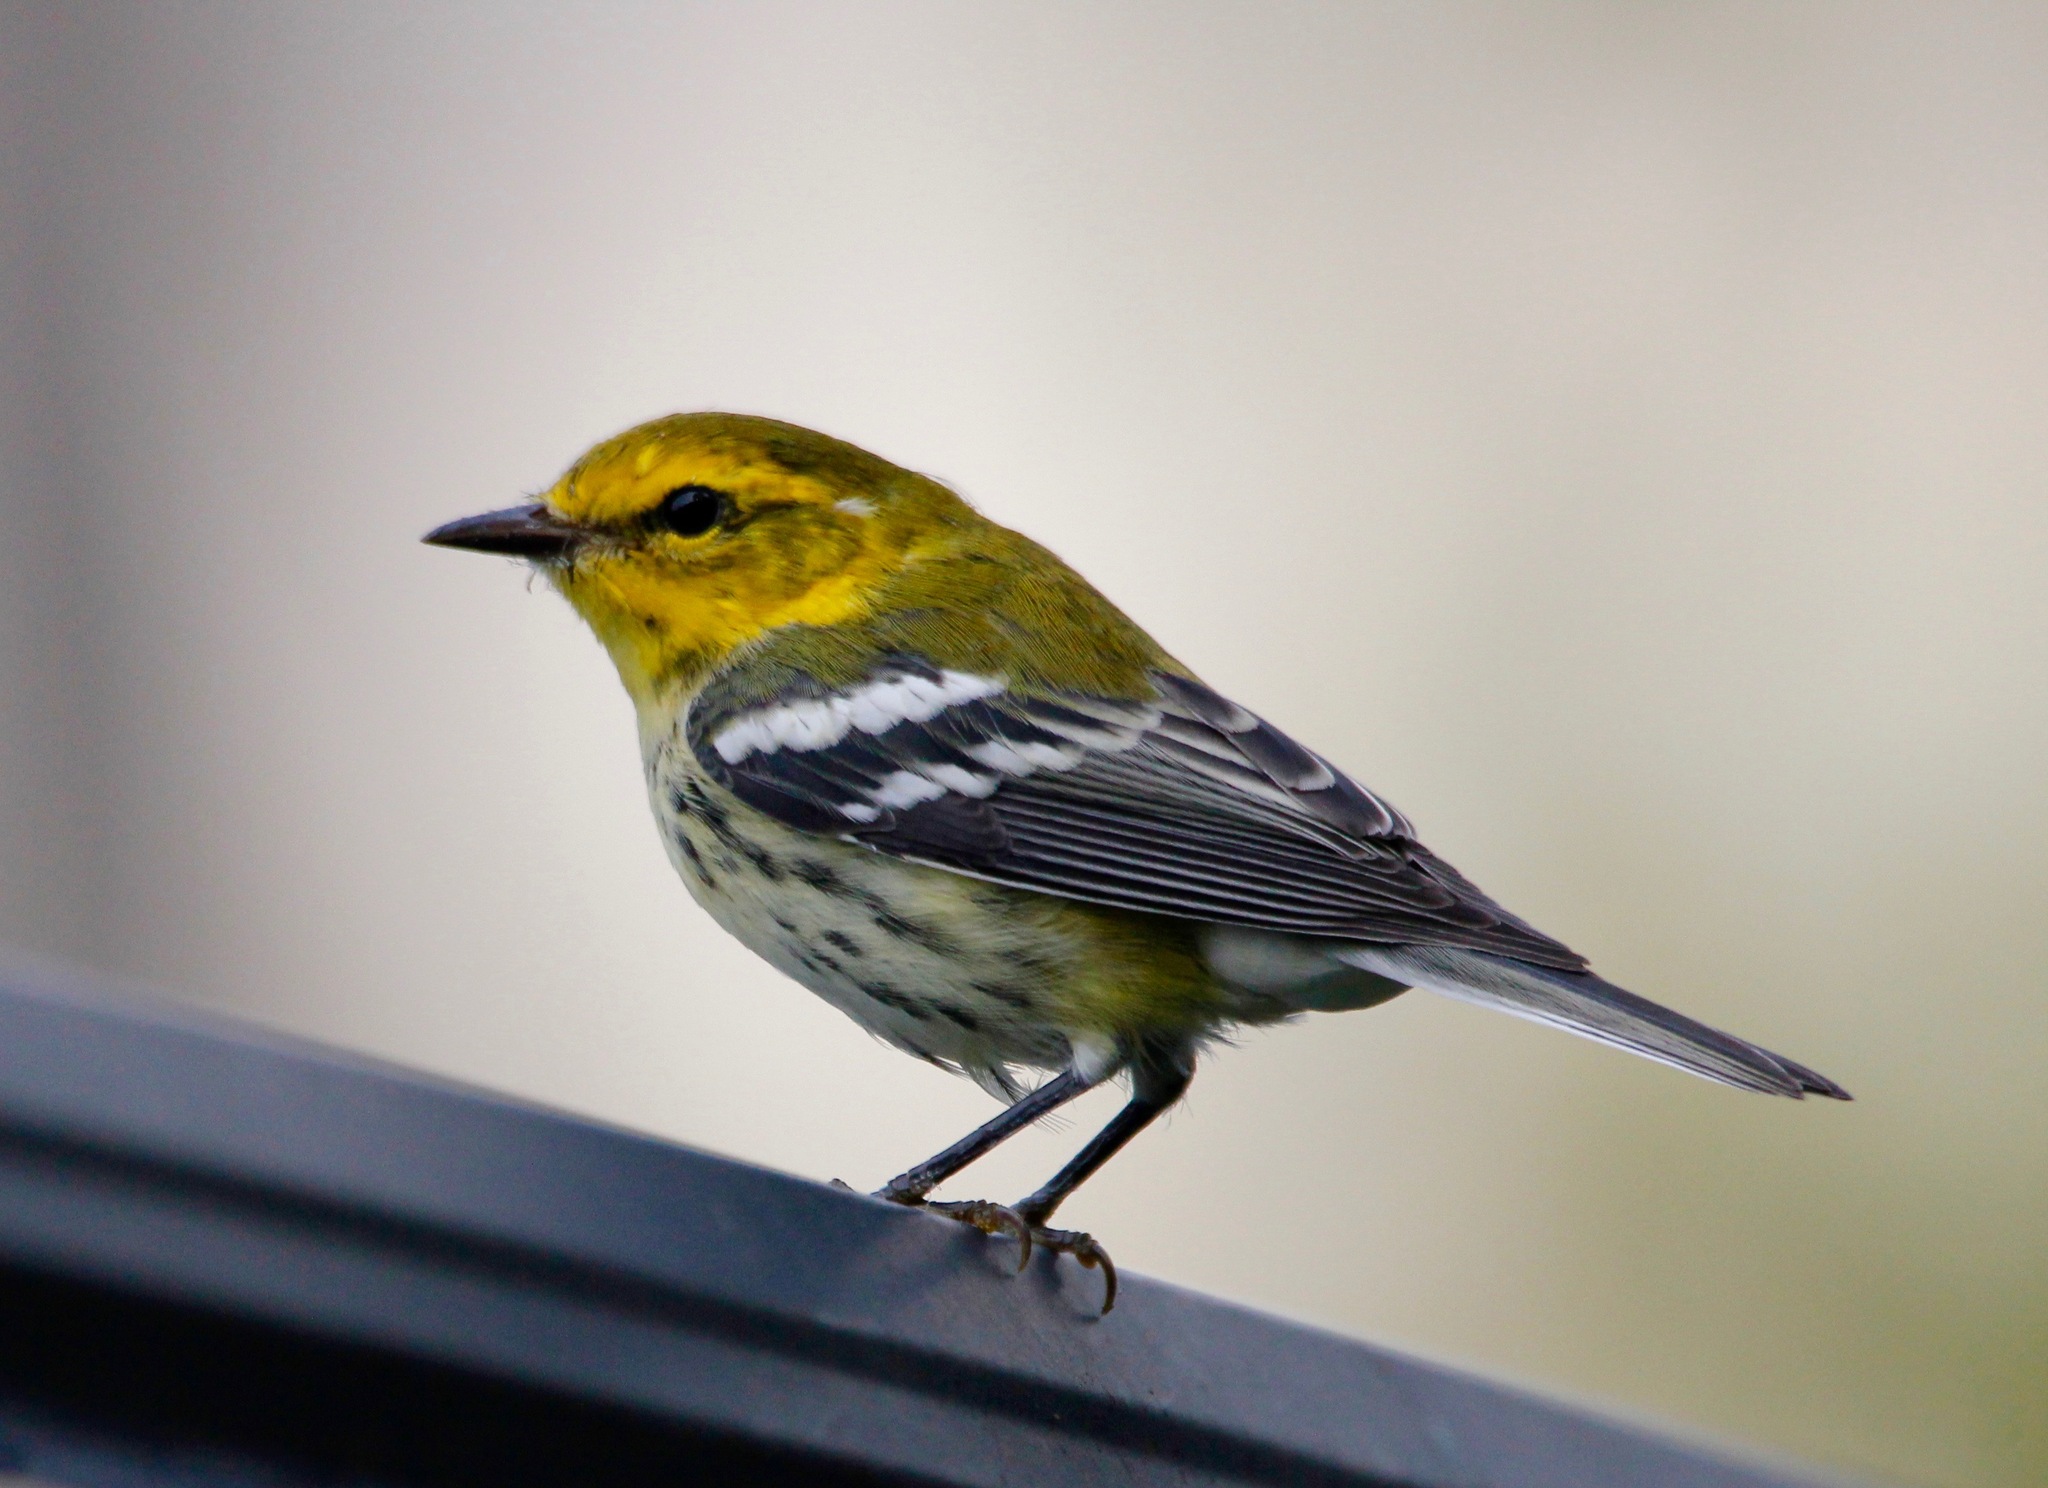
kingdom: Animalia
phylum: Chordata
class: Aves
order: Passeriformes
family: Parulidae
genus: Setophaga
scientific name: Setophaga virens
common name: Black-throated green warbler
